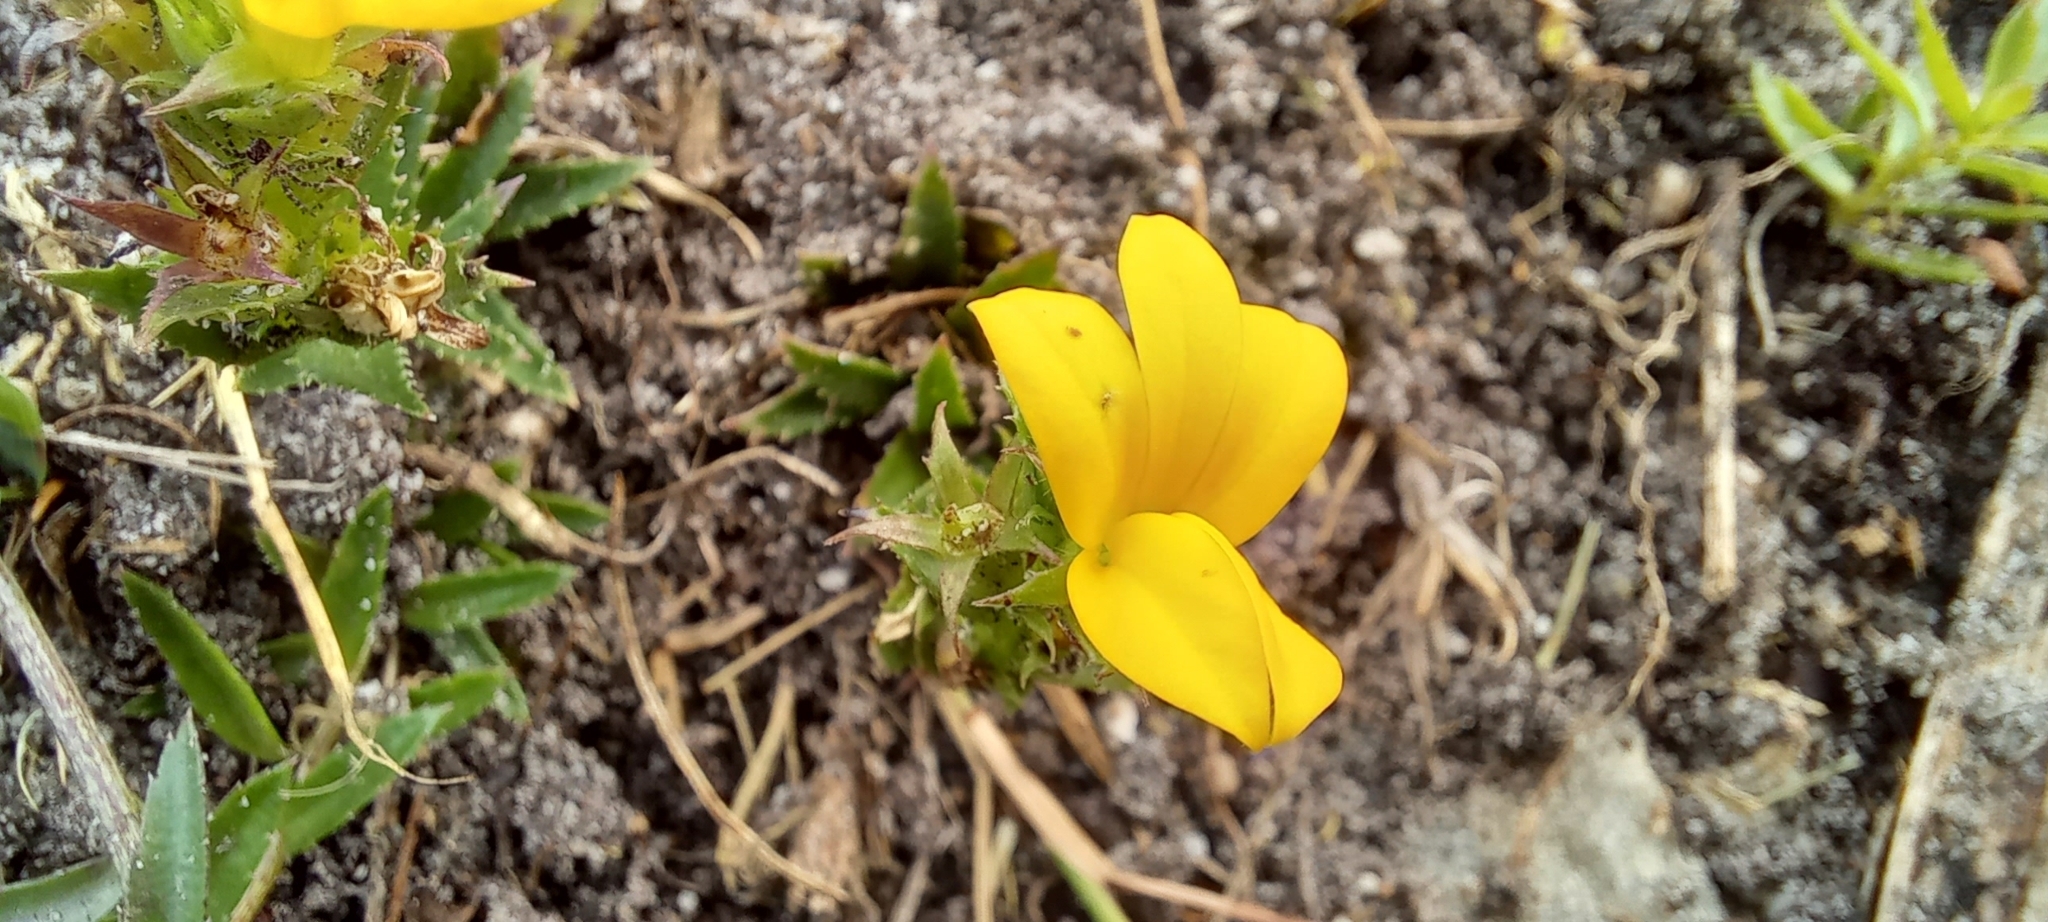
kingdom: Plantae
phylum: Tracheophyta
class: Magnoliopsida
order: Asterales
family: Campanulaceae
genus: Monopsis
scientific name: Monopsis lutea
